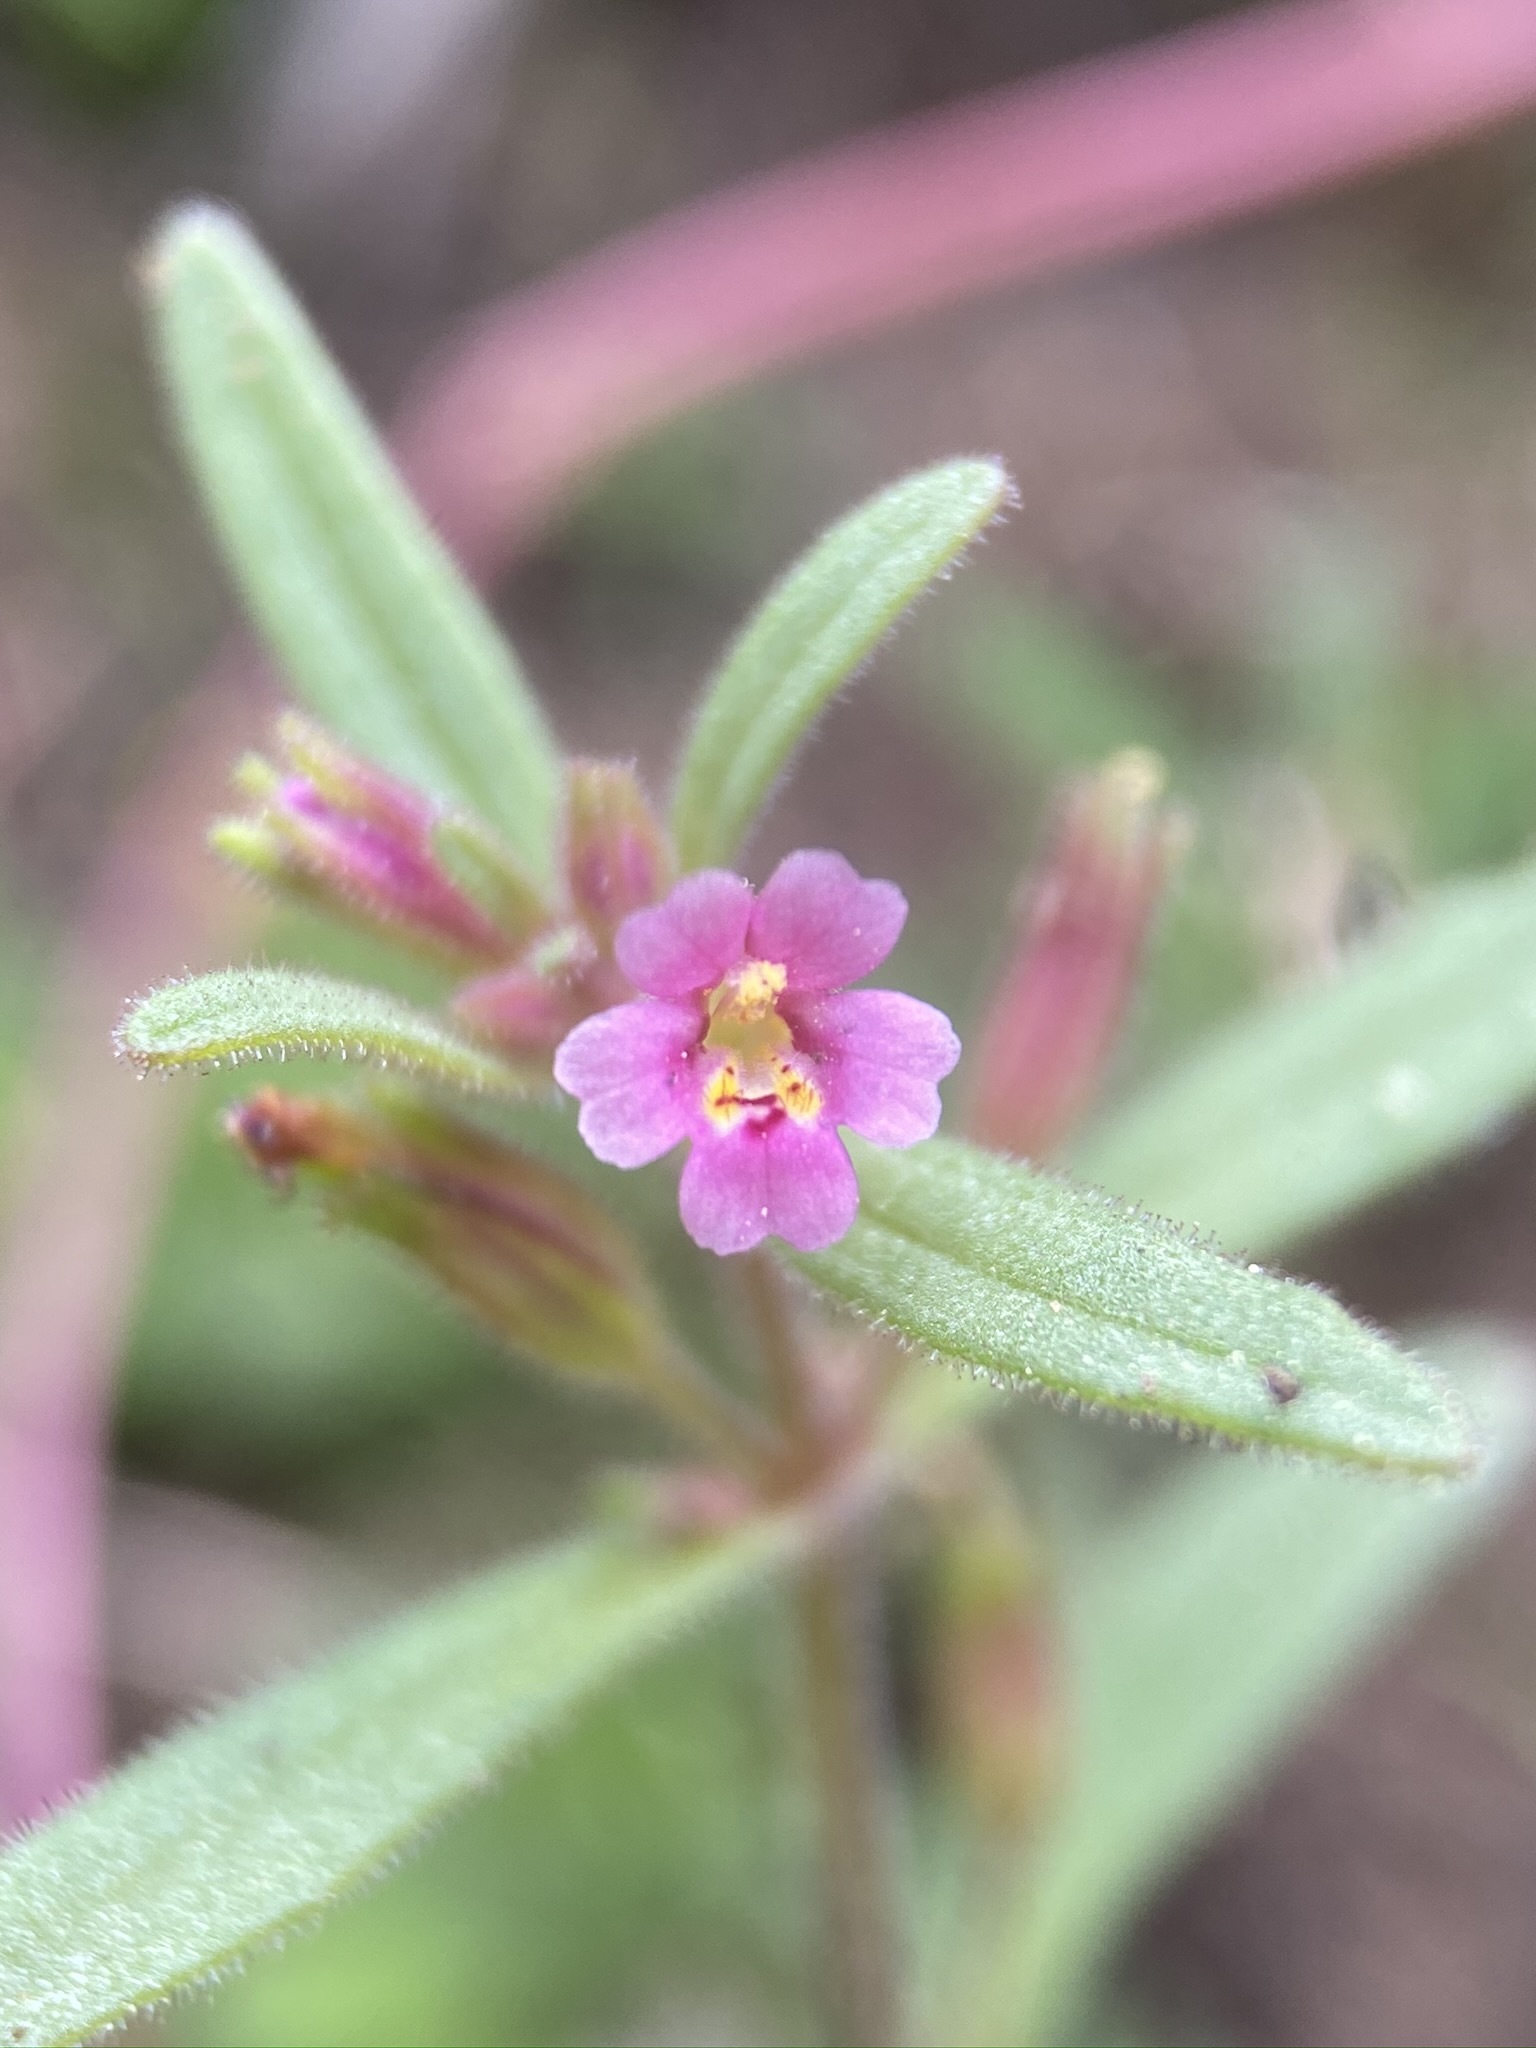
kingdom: Plantae
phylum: Tracheophyta
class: Magnoliopsida
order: Lamiales
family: Phrymaceae
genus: Erythranthe
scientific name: Erythranthe breweri
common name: Brewer's monkeyflower
